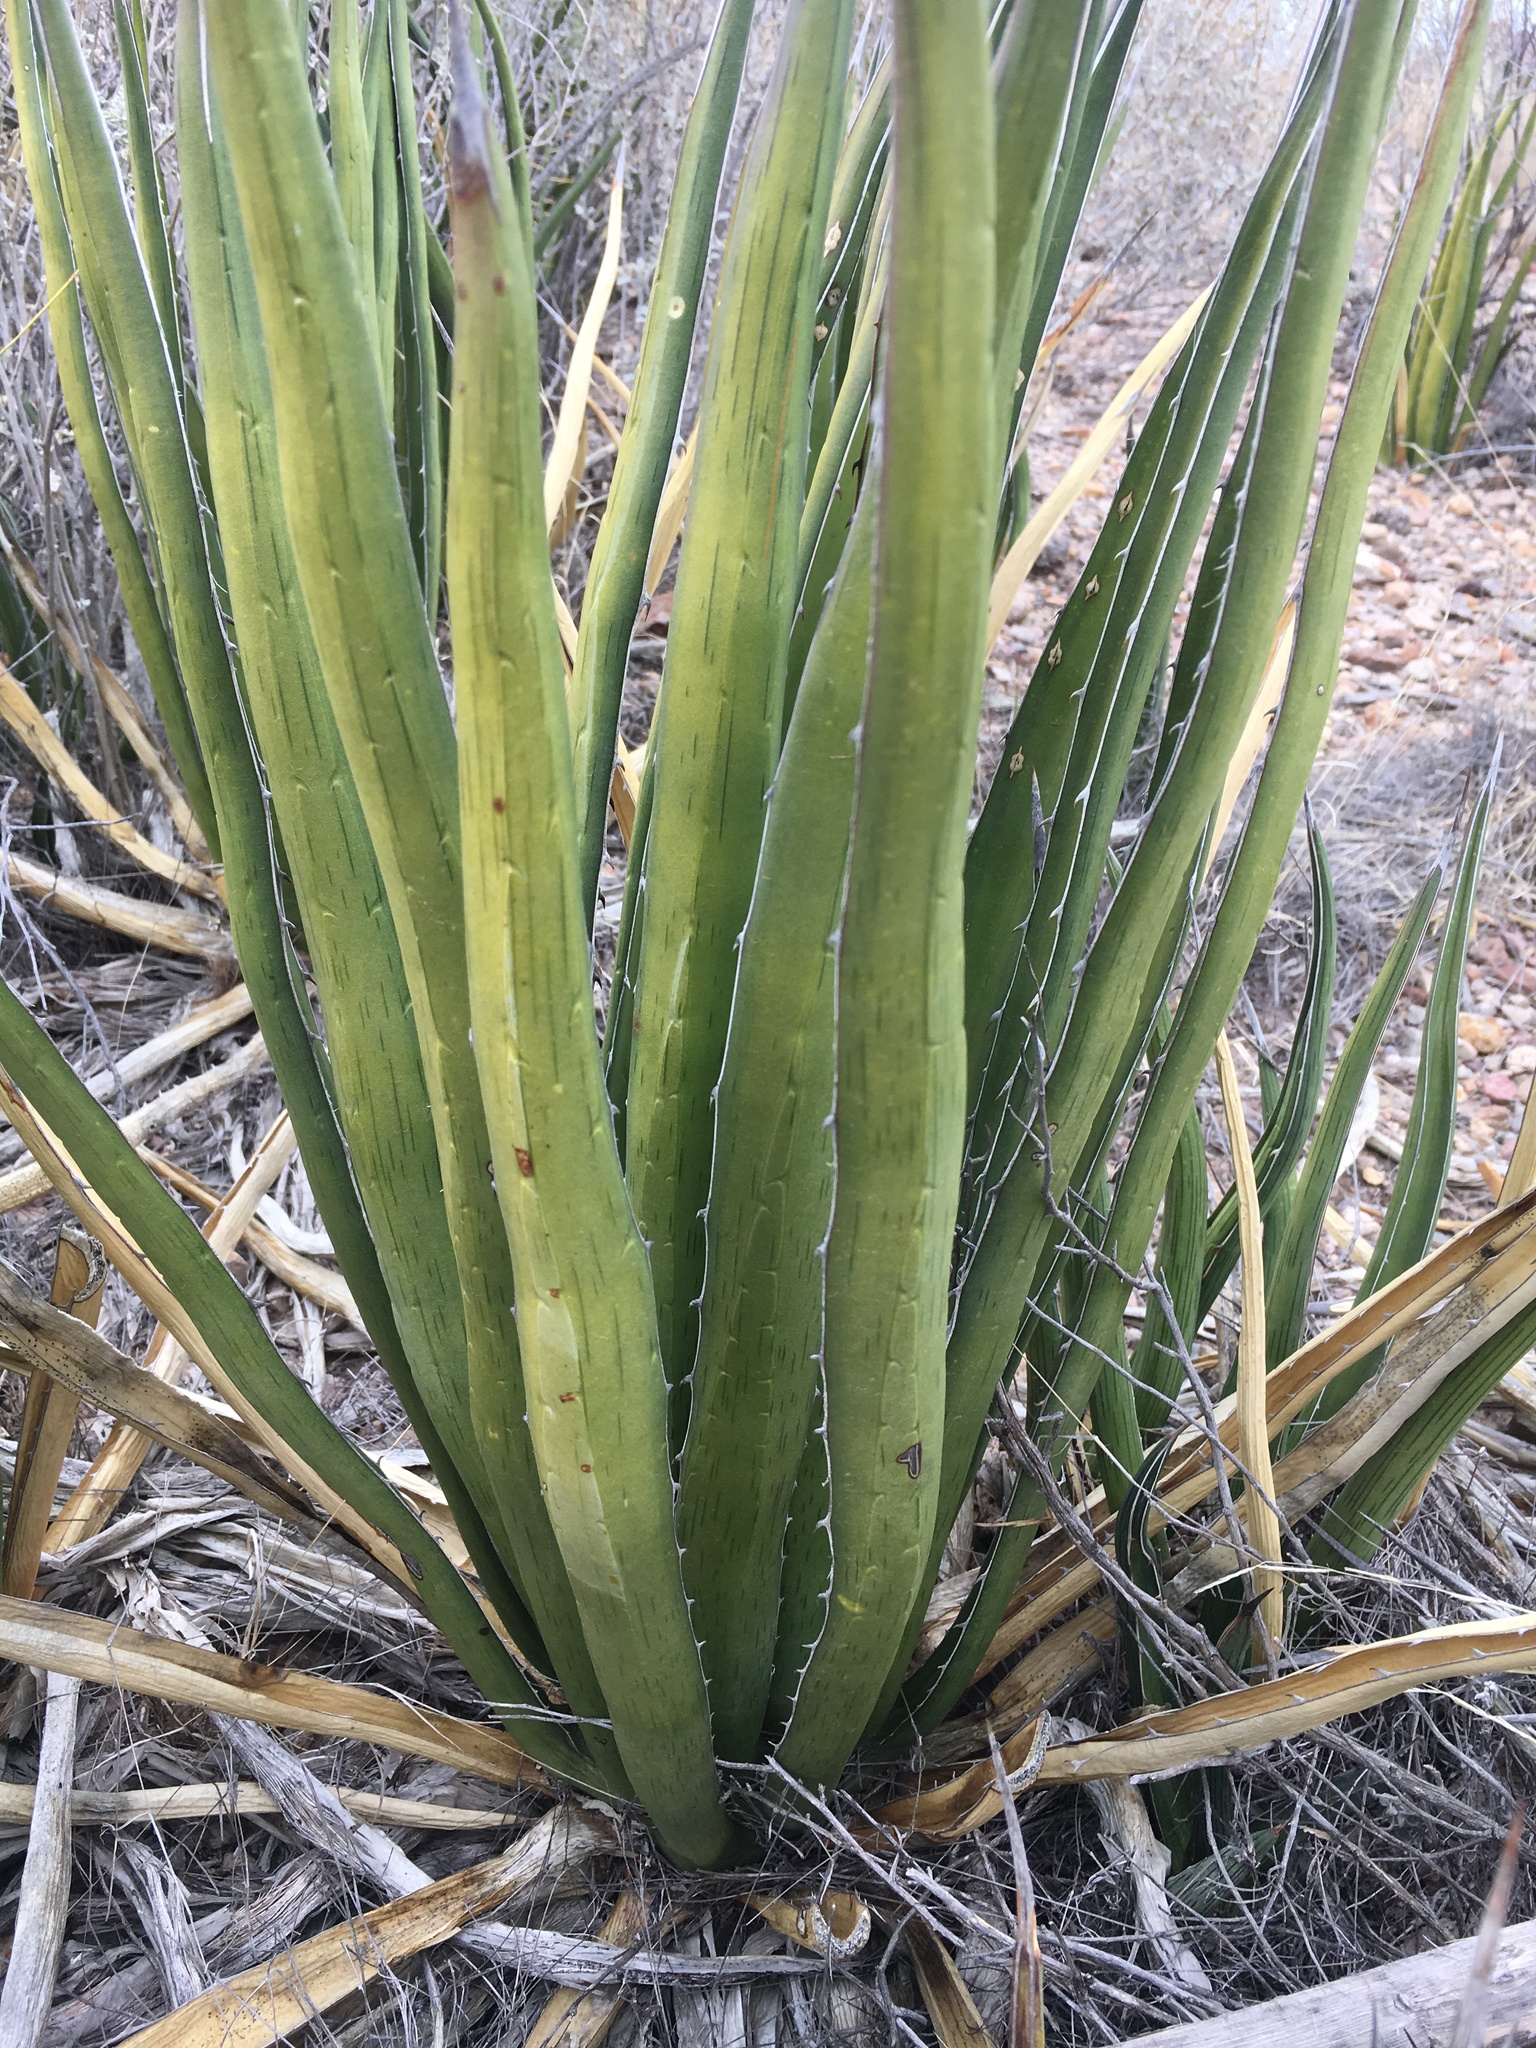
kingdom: Plantae
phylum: Tracheophyta
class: Liliopsida
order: Asparagales
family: Asparagaceae
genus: Agave
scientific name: Agave lechuguilla
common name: Lecheguilla agave
